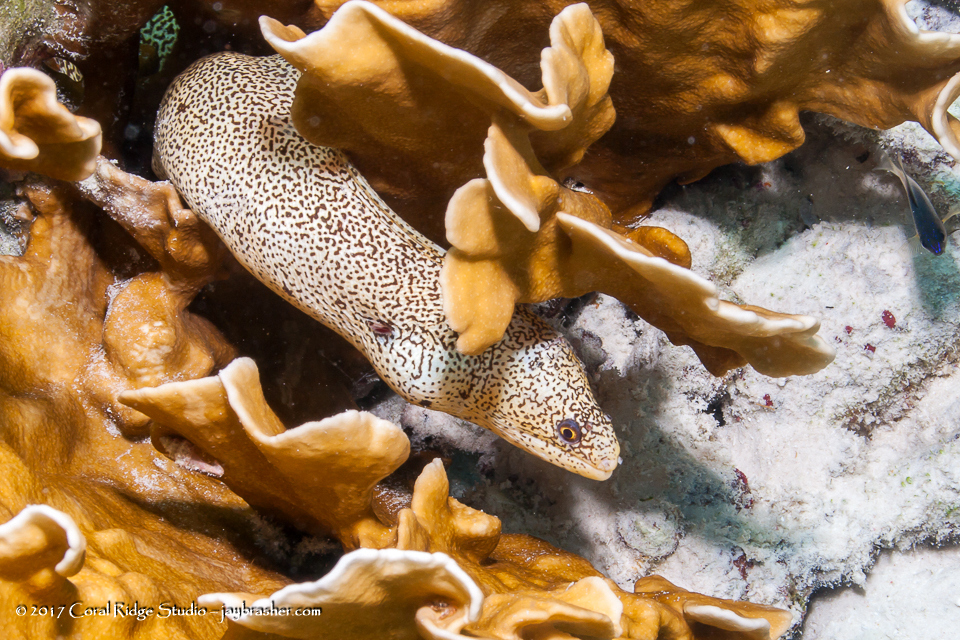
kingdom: Animalia
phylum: Chordata
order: Anguilliformes
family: Muraenidae
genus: Gymnothorax
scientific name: Gymnothorax miliaris
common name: Goldentail moray
